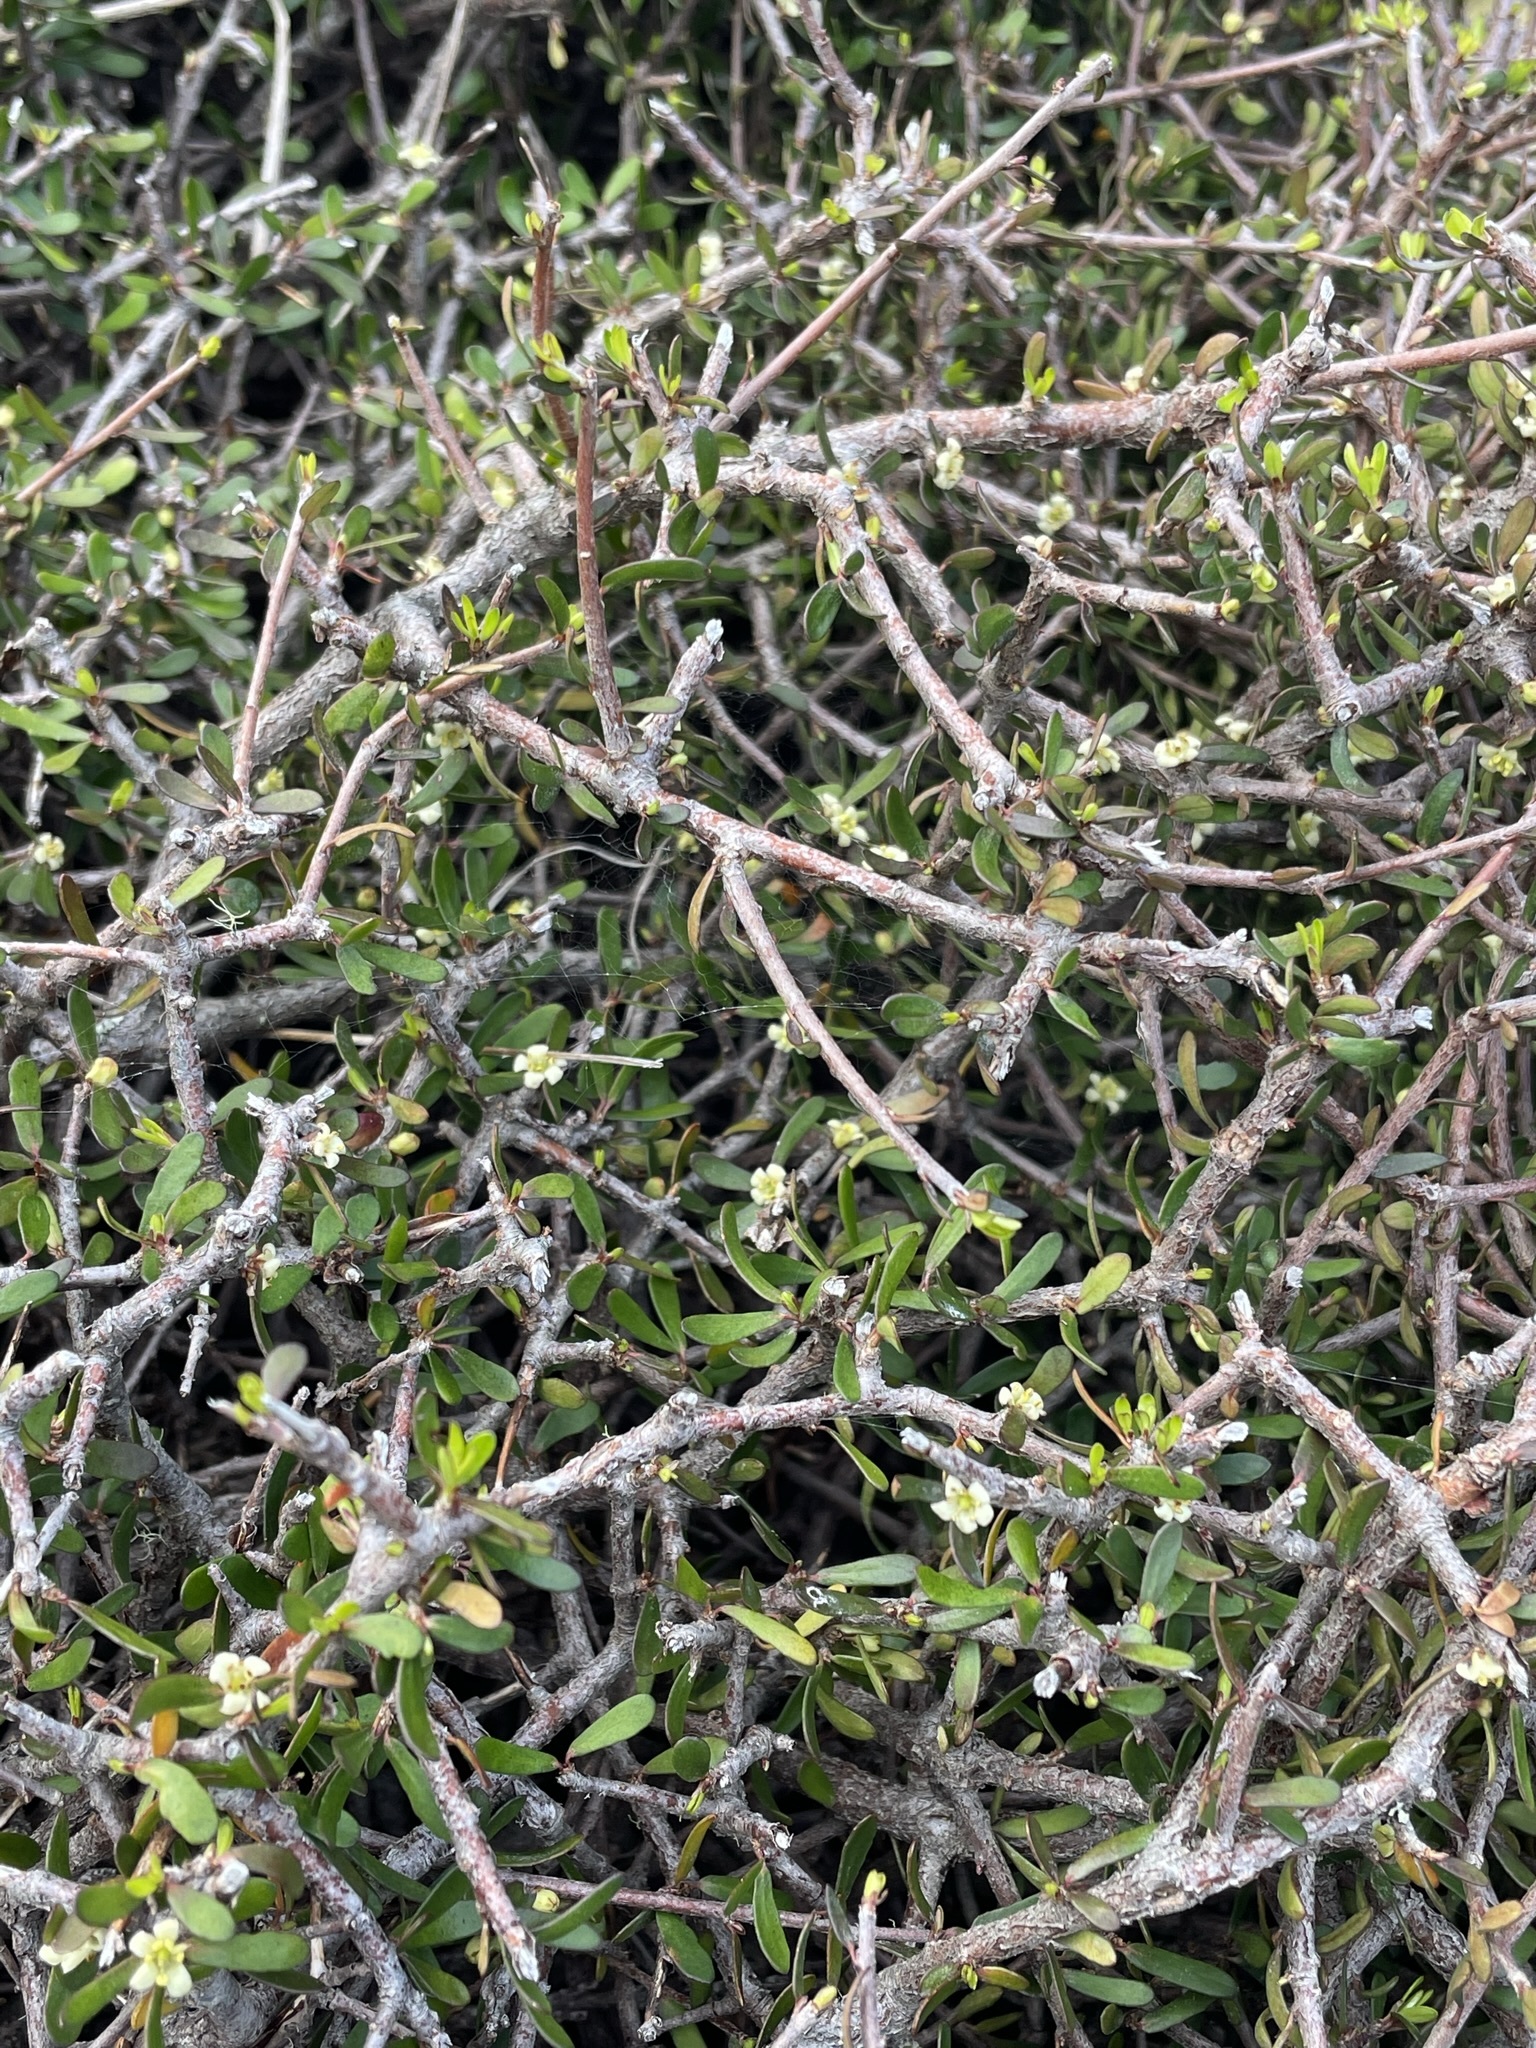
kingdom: Plantae
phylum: Tracheophyta
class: Magnoliopsida
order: Apiales
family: Pittosporaceae
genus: Pittosporum
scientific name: Pittosporum anomalum
